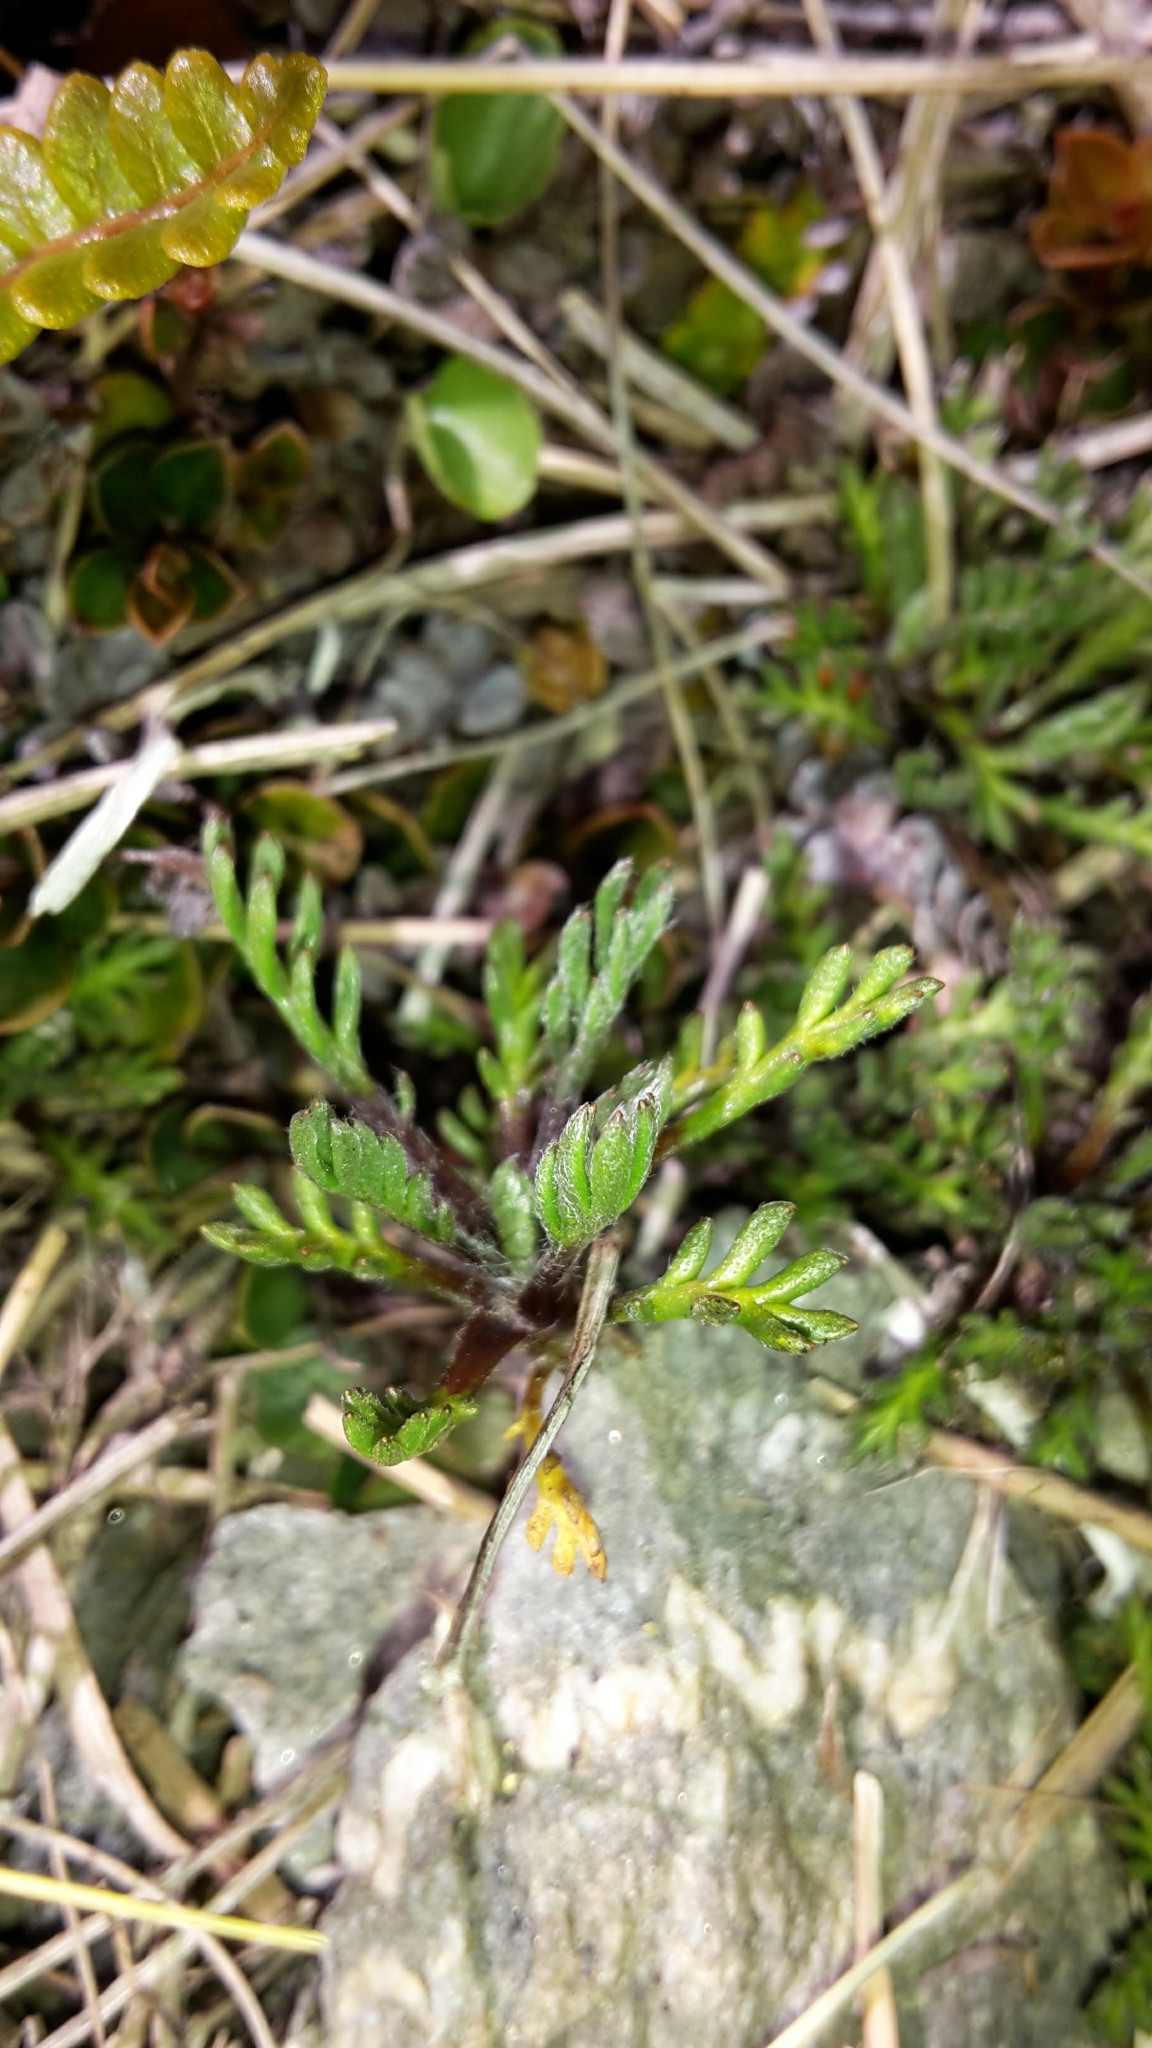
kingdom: Plantae
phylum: Tracheophyta
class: Magnoliopsida
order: Asterales
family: Asteraceae
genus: Leptinella
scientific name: Leptinella pectinata
